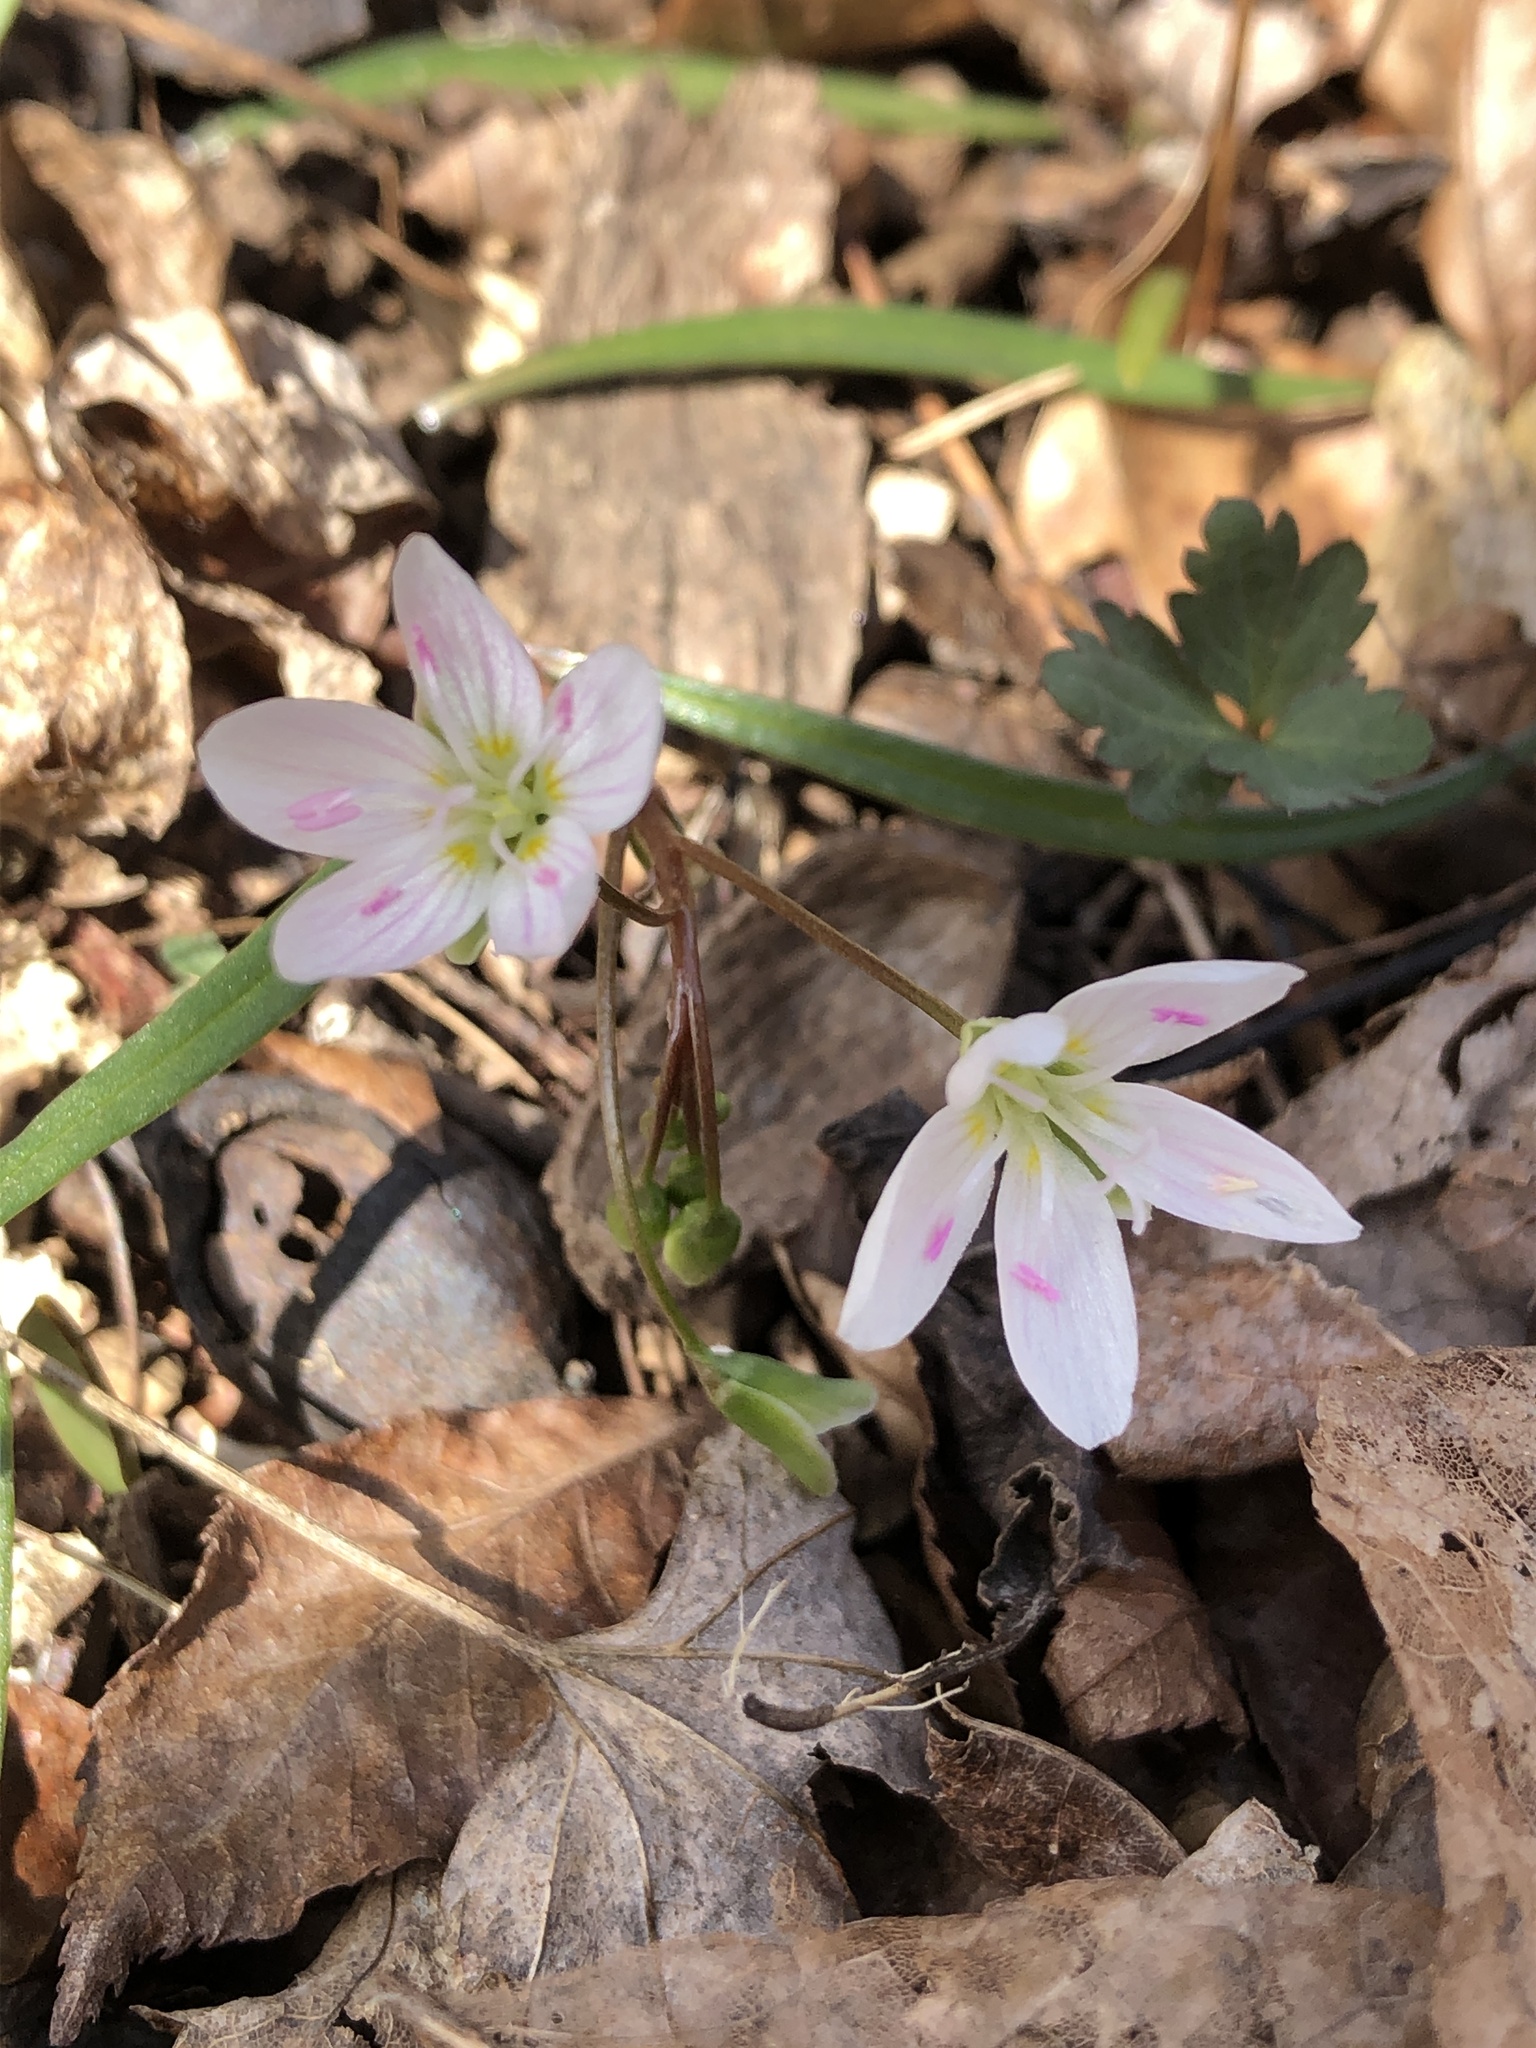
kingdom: Plantae
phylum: Tracheophyta
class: Magnoliopsida
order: Caryophyllales
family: Montiaceae
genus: Claytonia
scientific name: Claytonia virginica
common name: Virginia springbeauty
